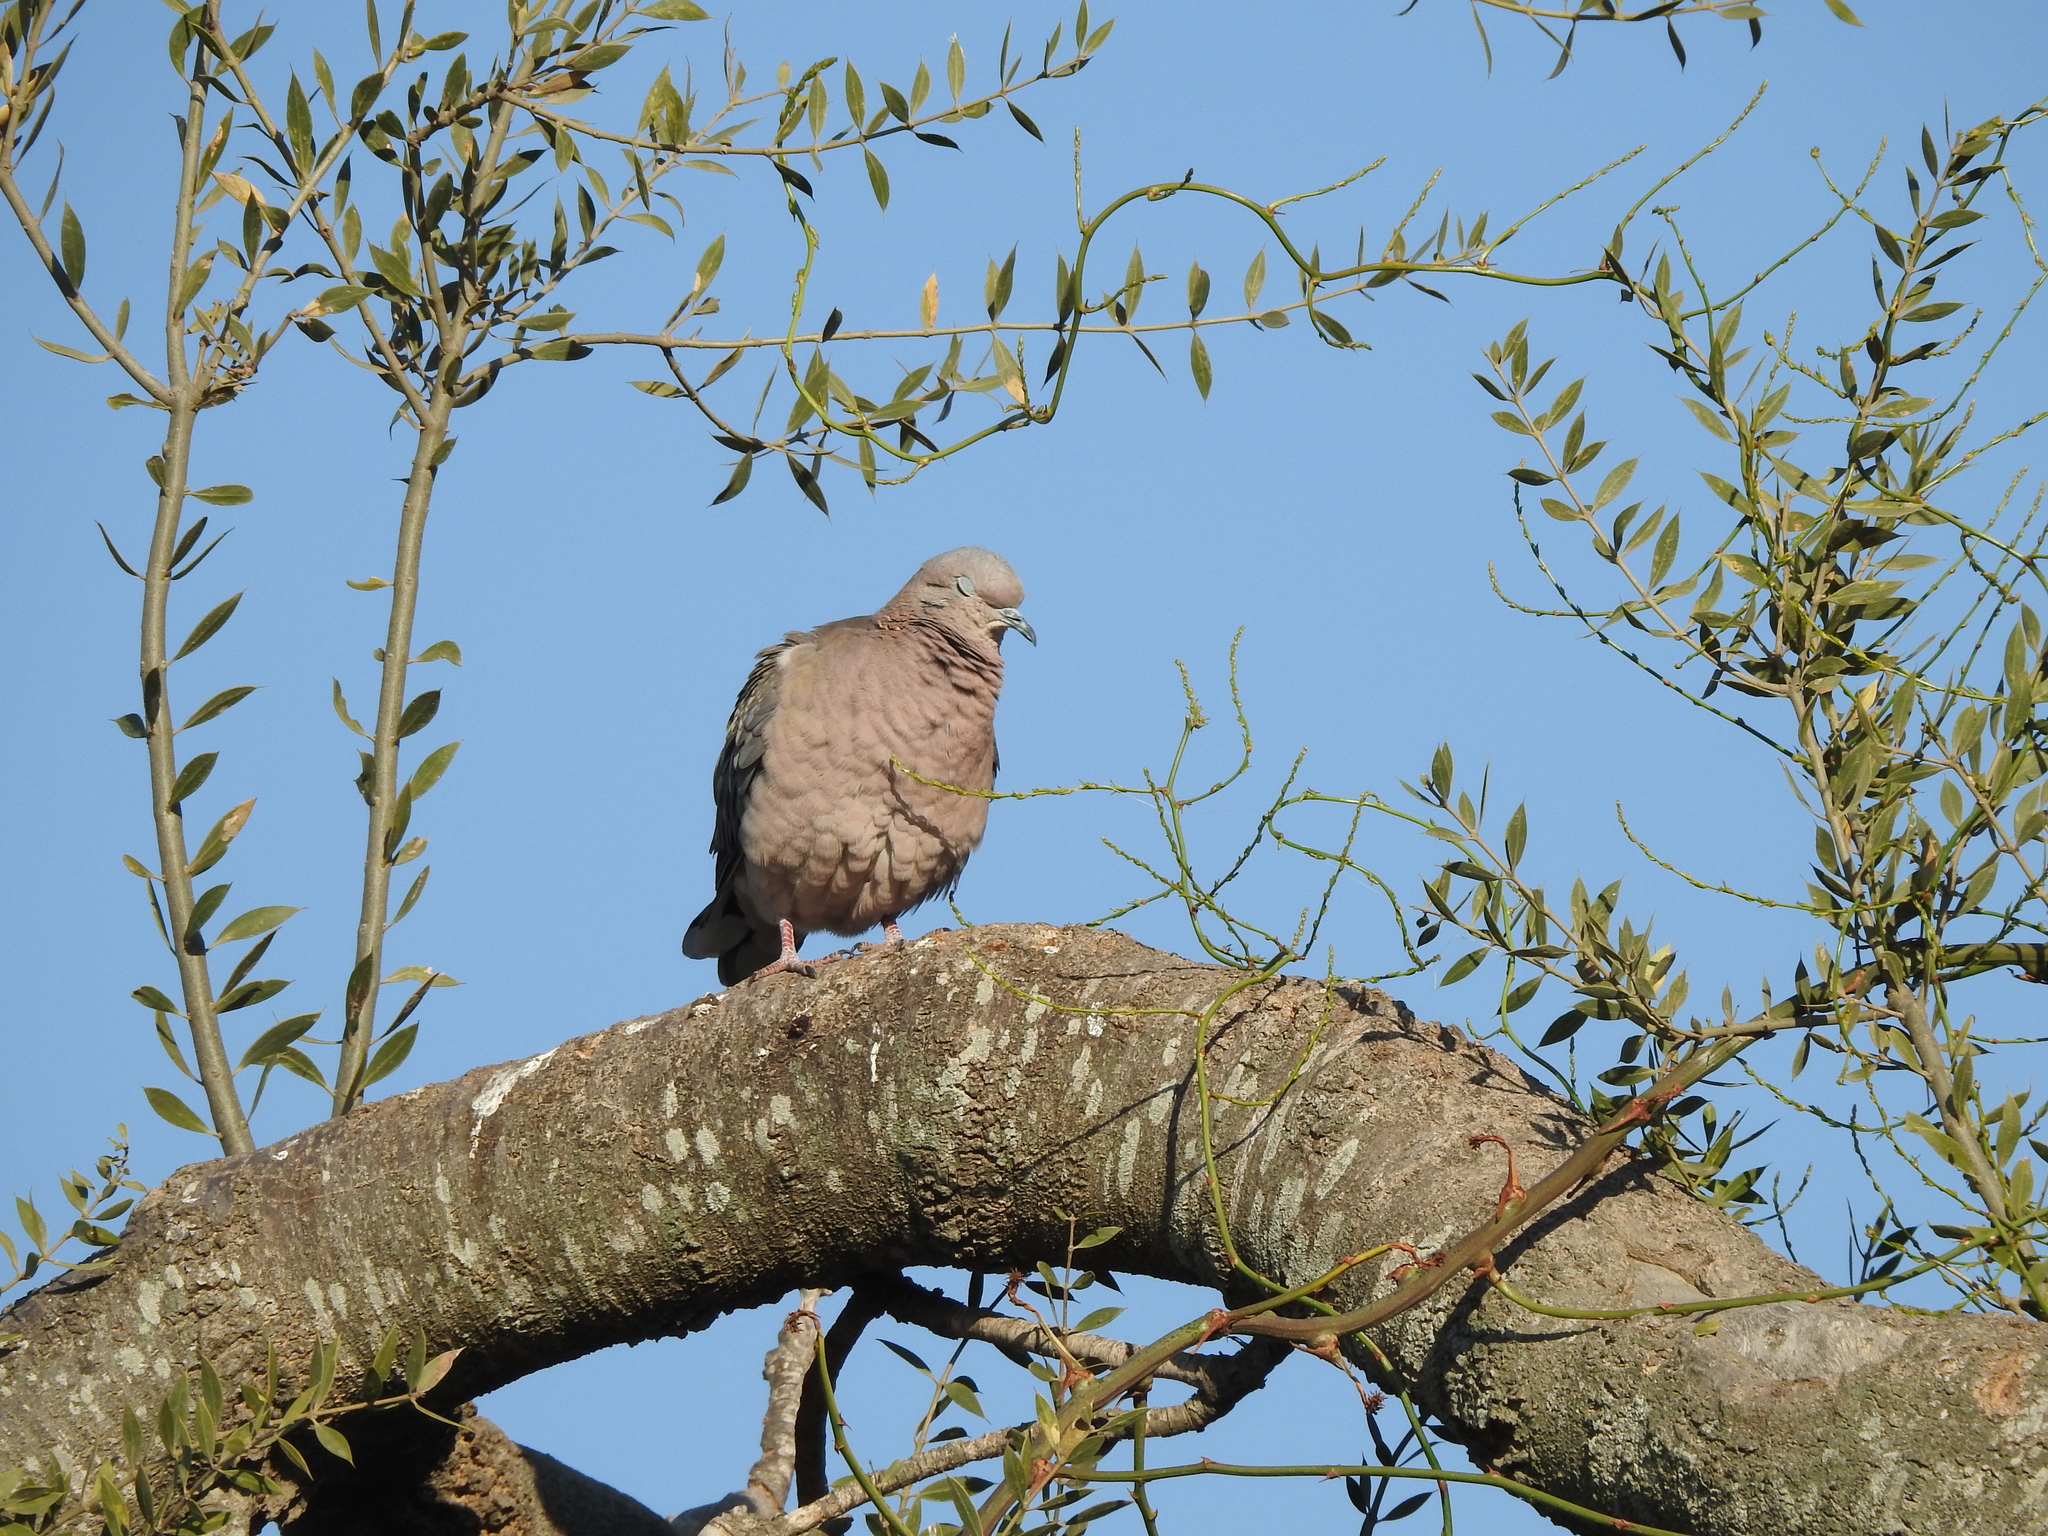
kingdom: Animalia
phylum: Chordata
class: Aves
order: Columbiformes
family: Columbidae
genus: Zenaida
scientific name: Zenaida auriculata
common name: Eared dove
